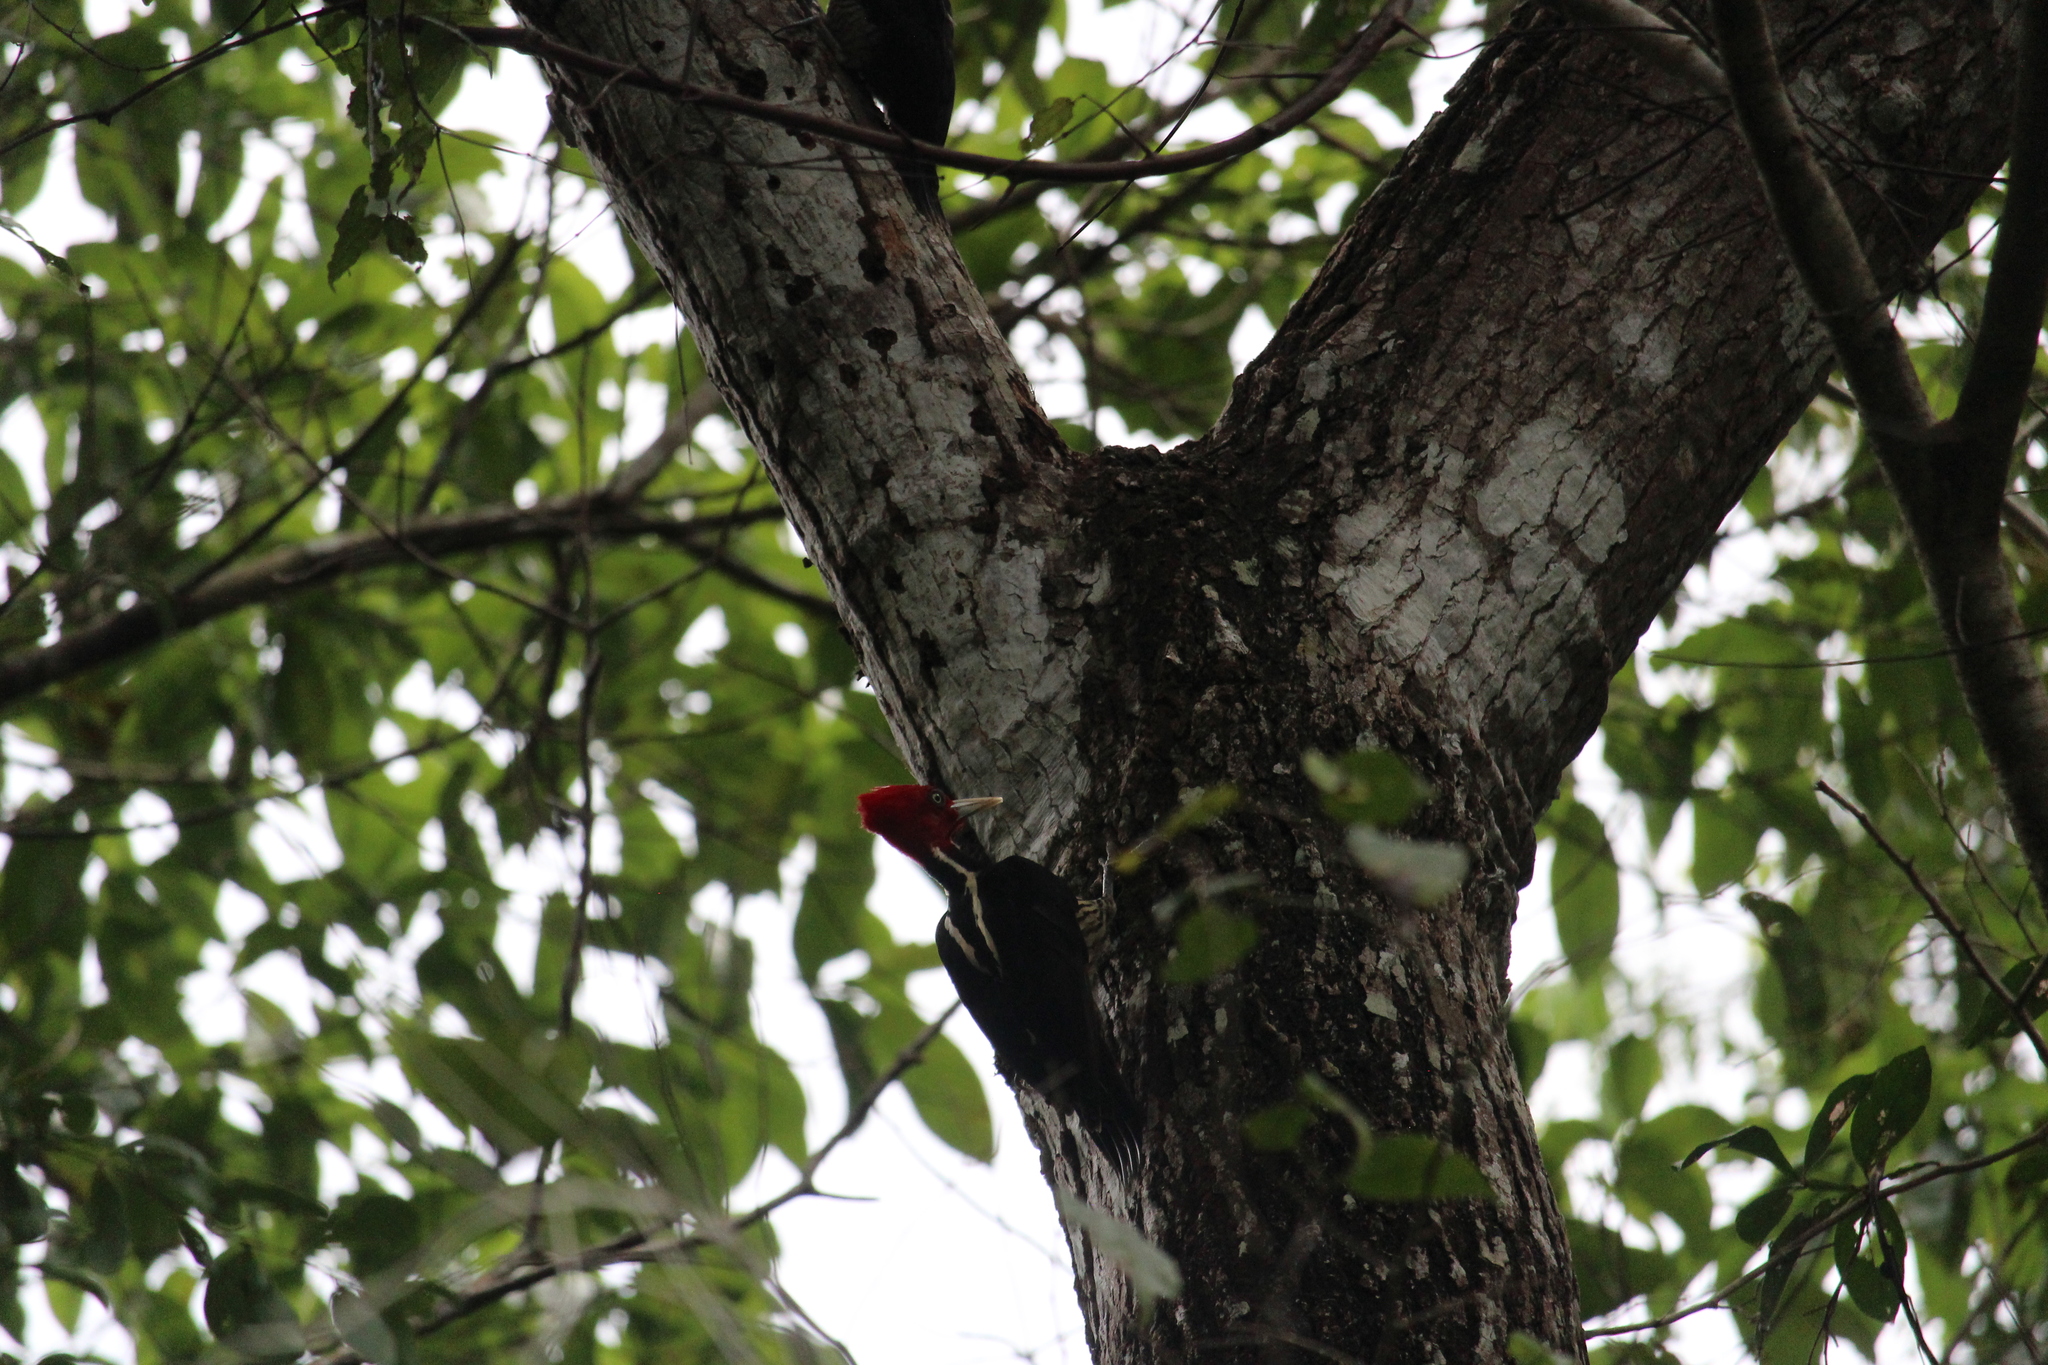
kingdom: Animalia
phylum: Chordata
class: Aves
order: Piciformes
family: Picidae
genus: Campephilus
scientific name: Campephilus guatemalensis
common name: Pale-billed woodpecker
